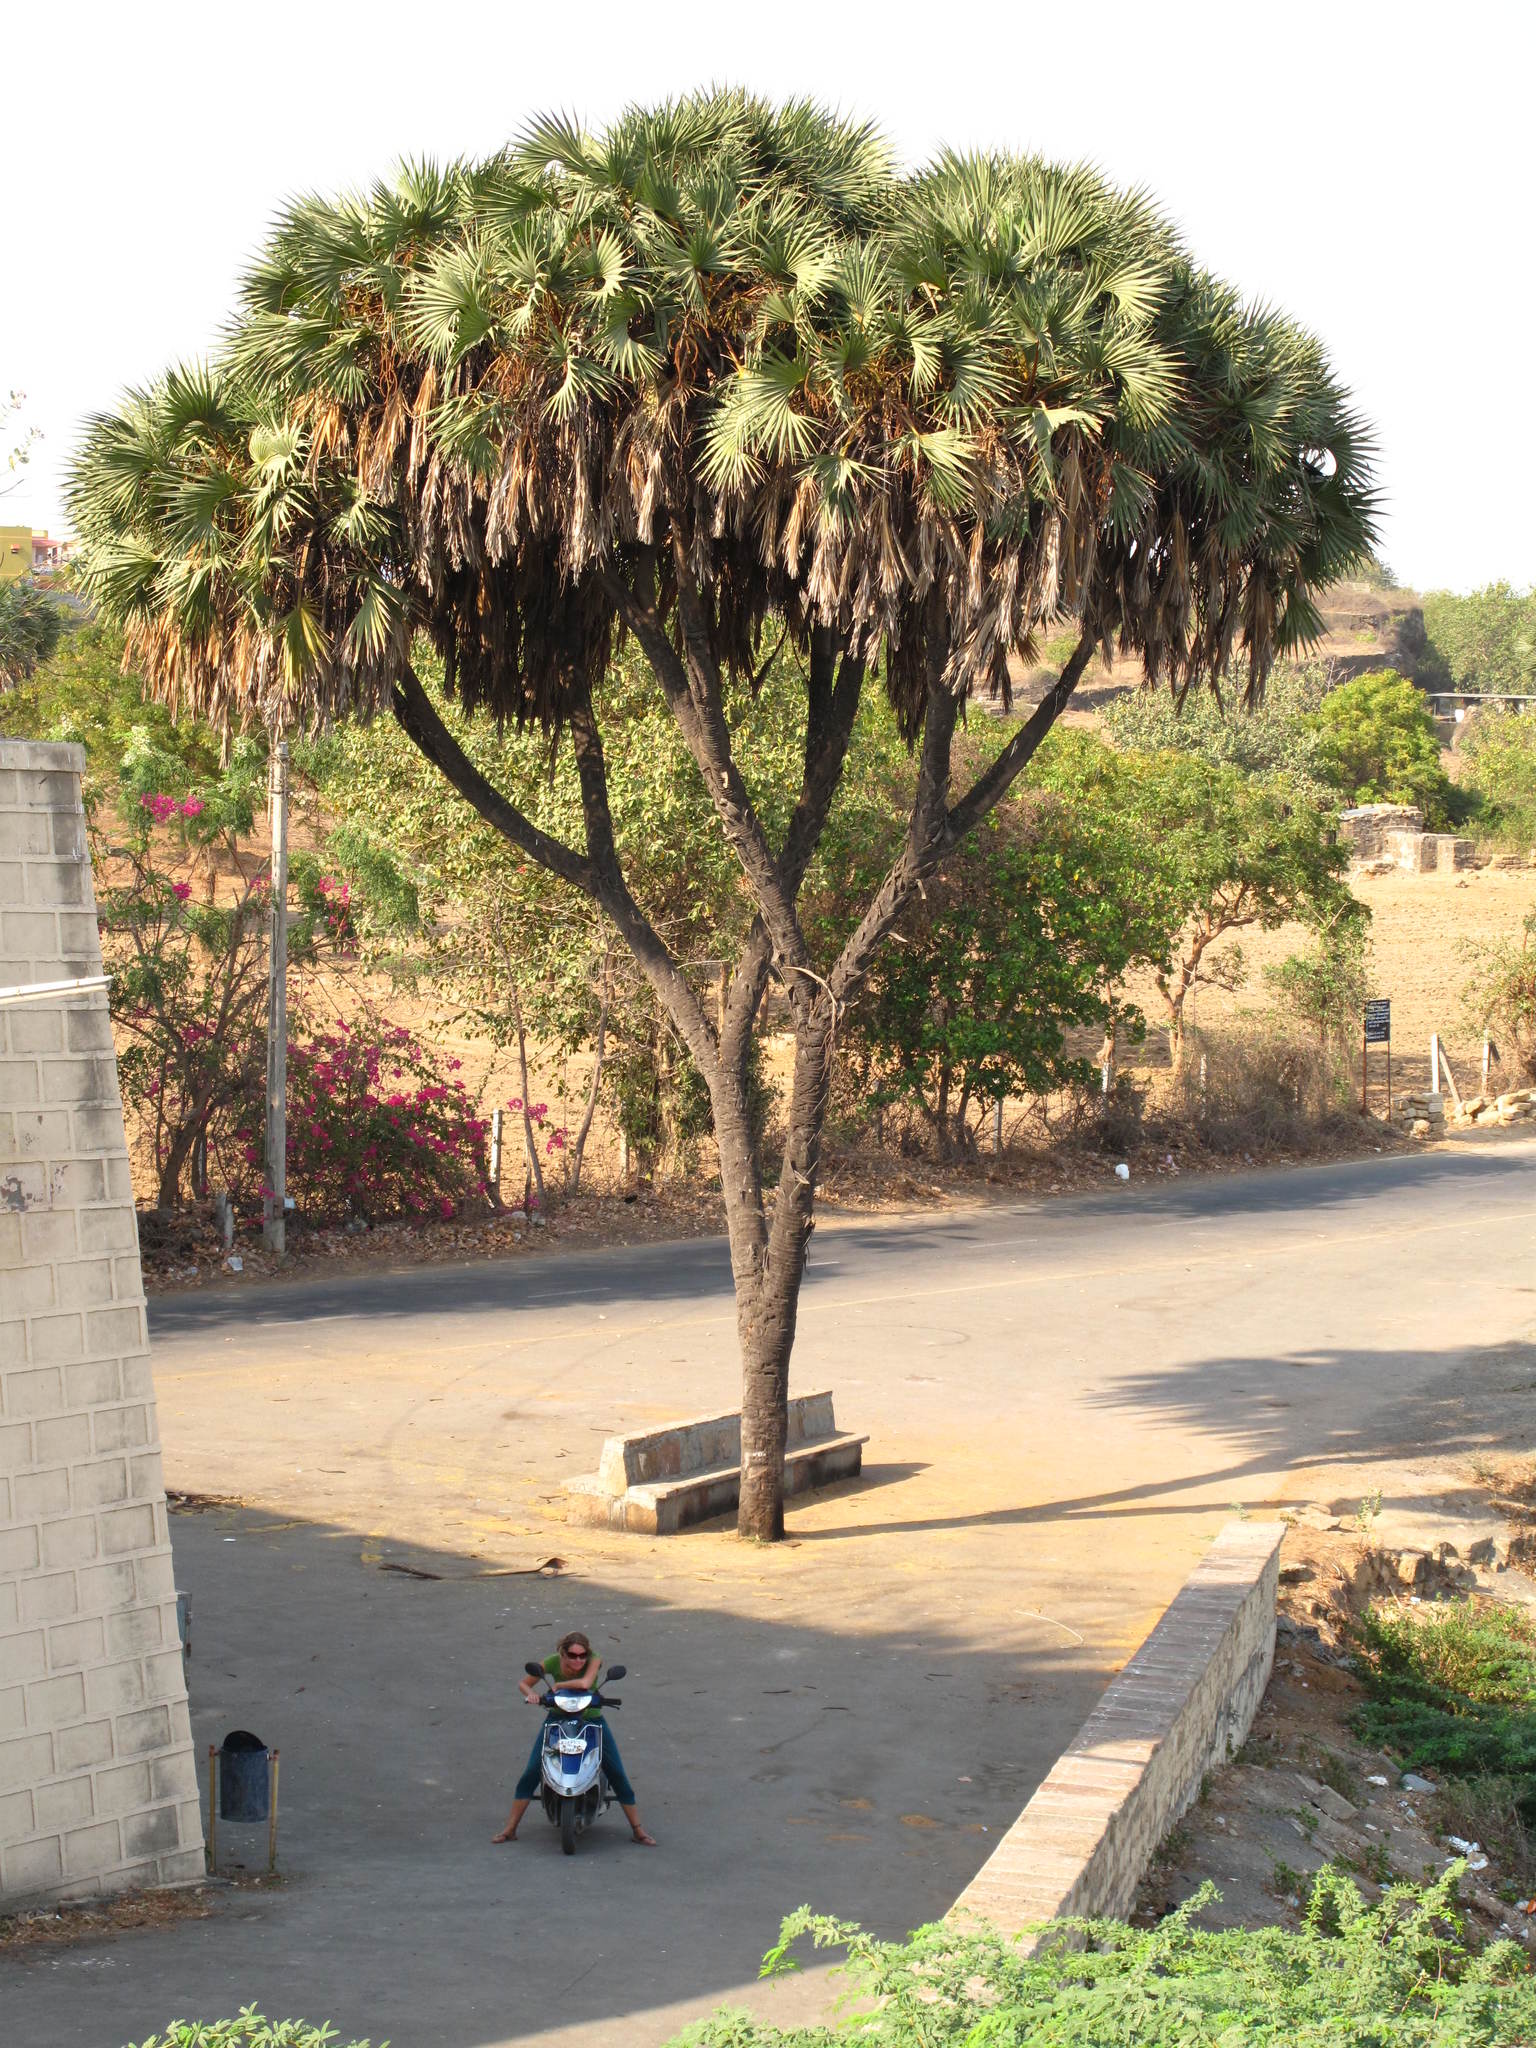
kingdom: Plantae
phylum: Tracheophyta
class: Liliopsida
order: Arecales
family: Arecaceae
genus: Hyphaene
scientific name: Hyphaene dichotoma
